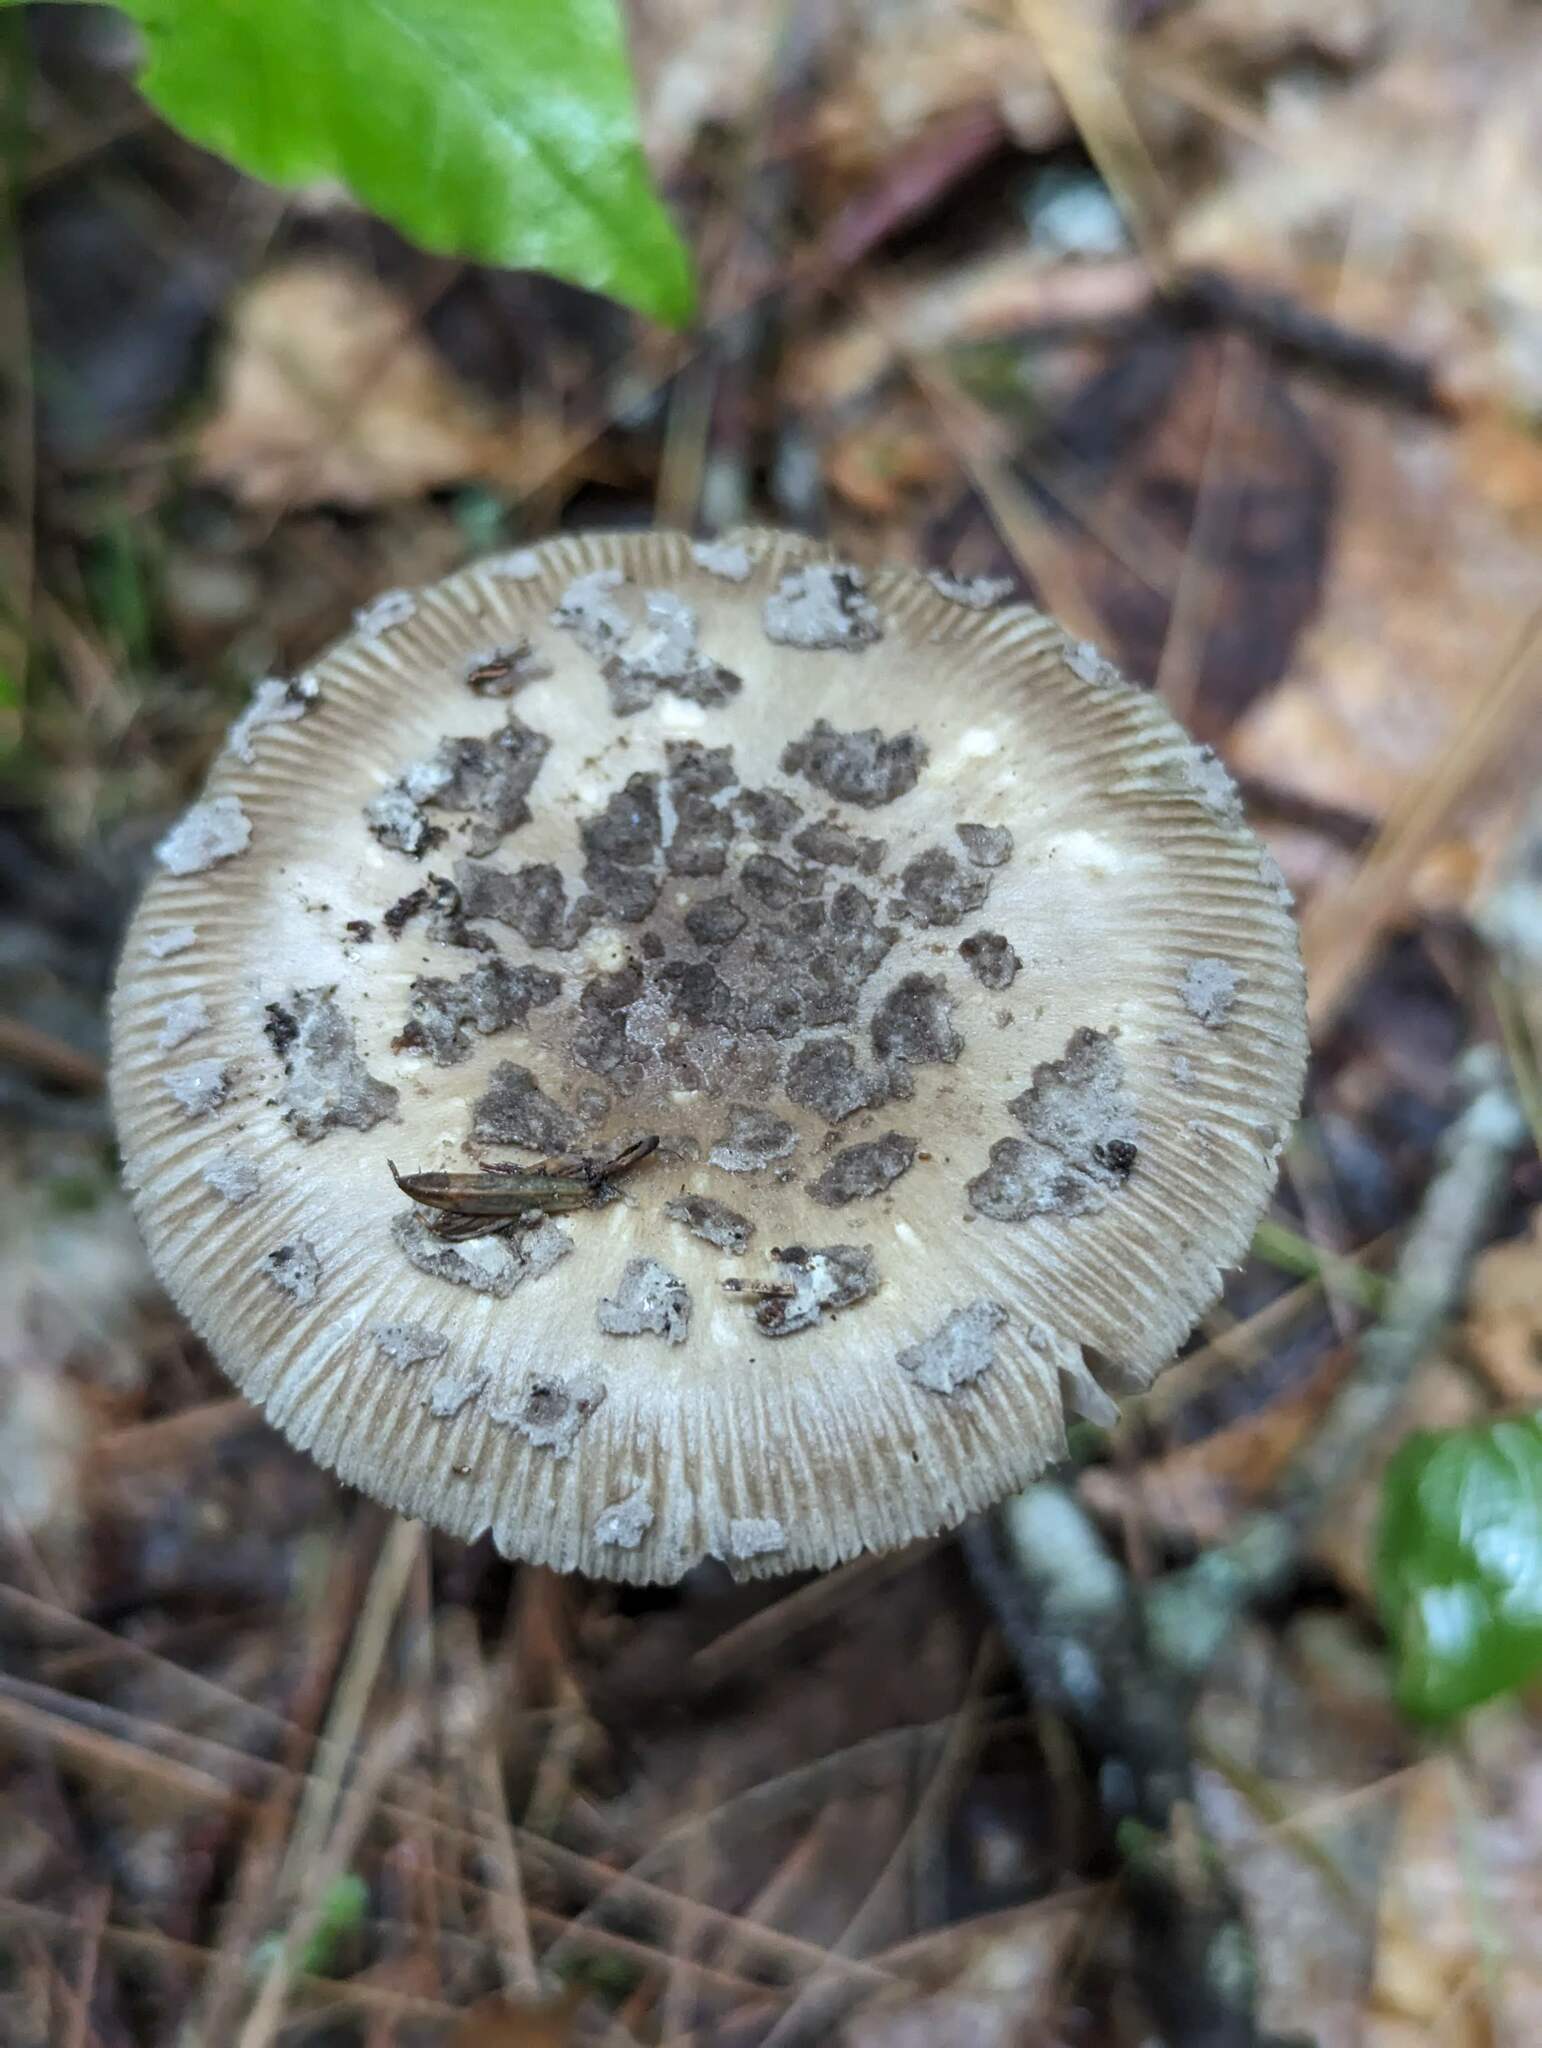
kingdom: Fungi
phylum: Basidiomycota
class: Agaricomycetes
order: Agaricales
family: Amanitaceae
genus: Amanita
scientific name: Amanita rhacopus
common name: Shaggy legged ringless amanita
